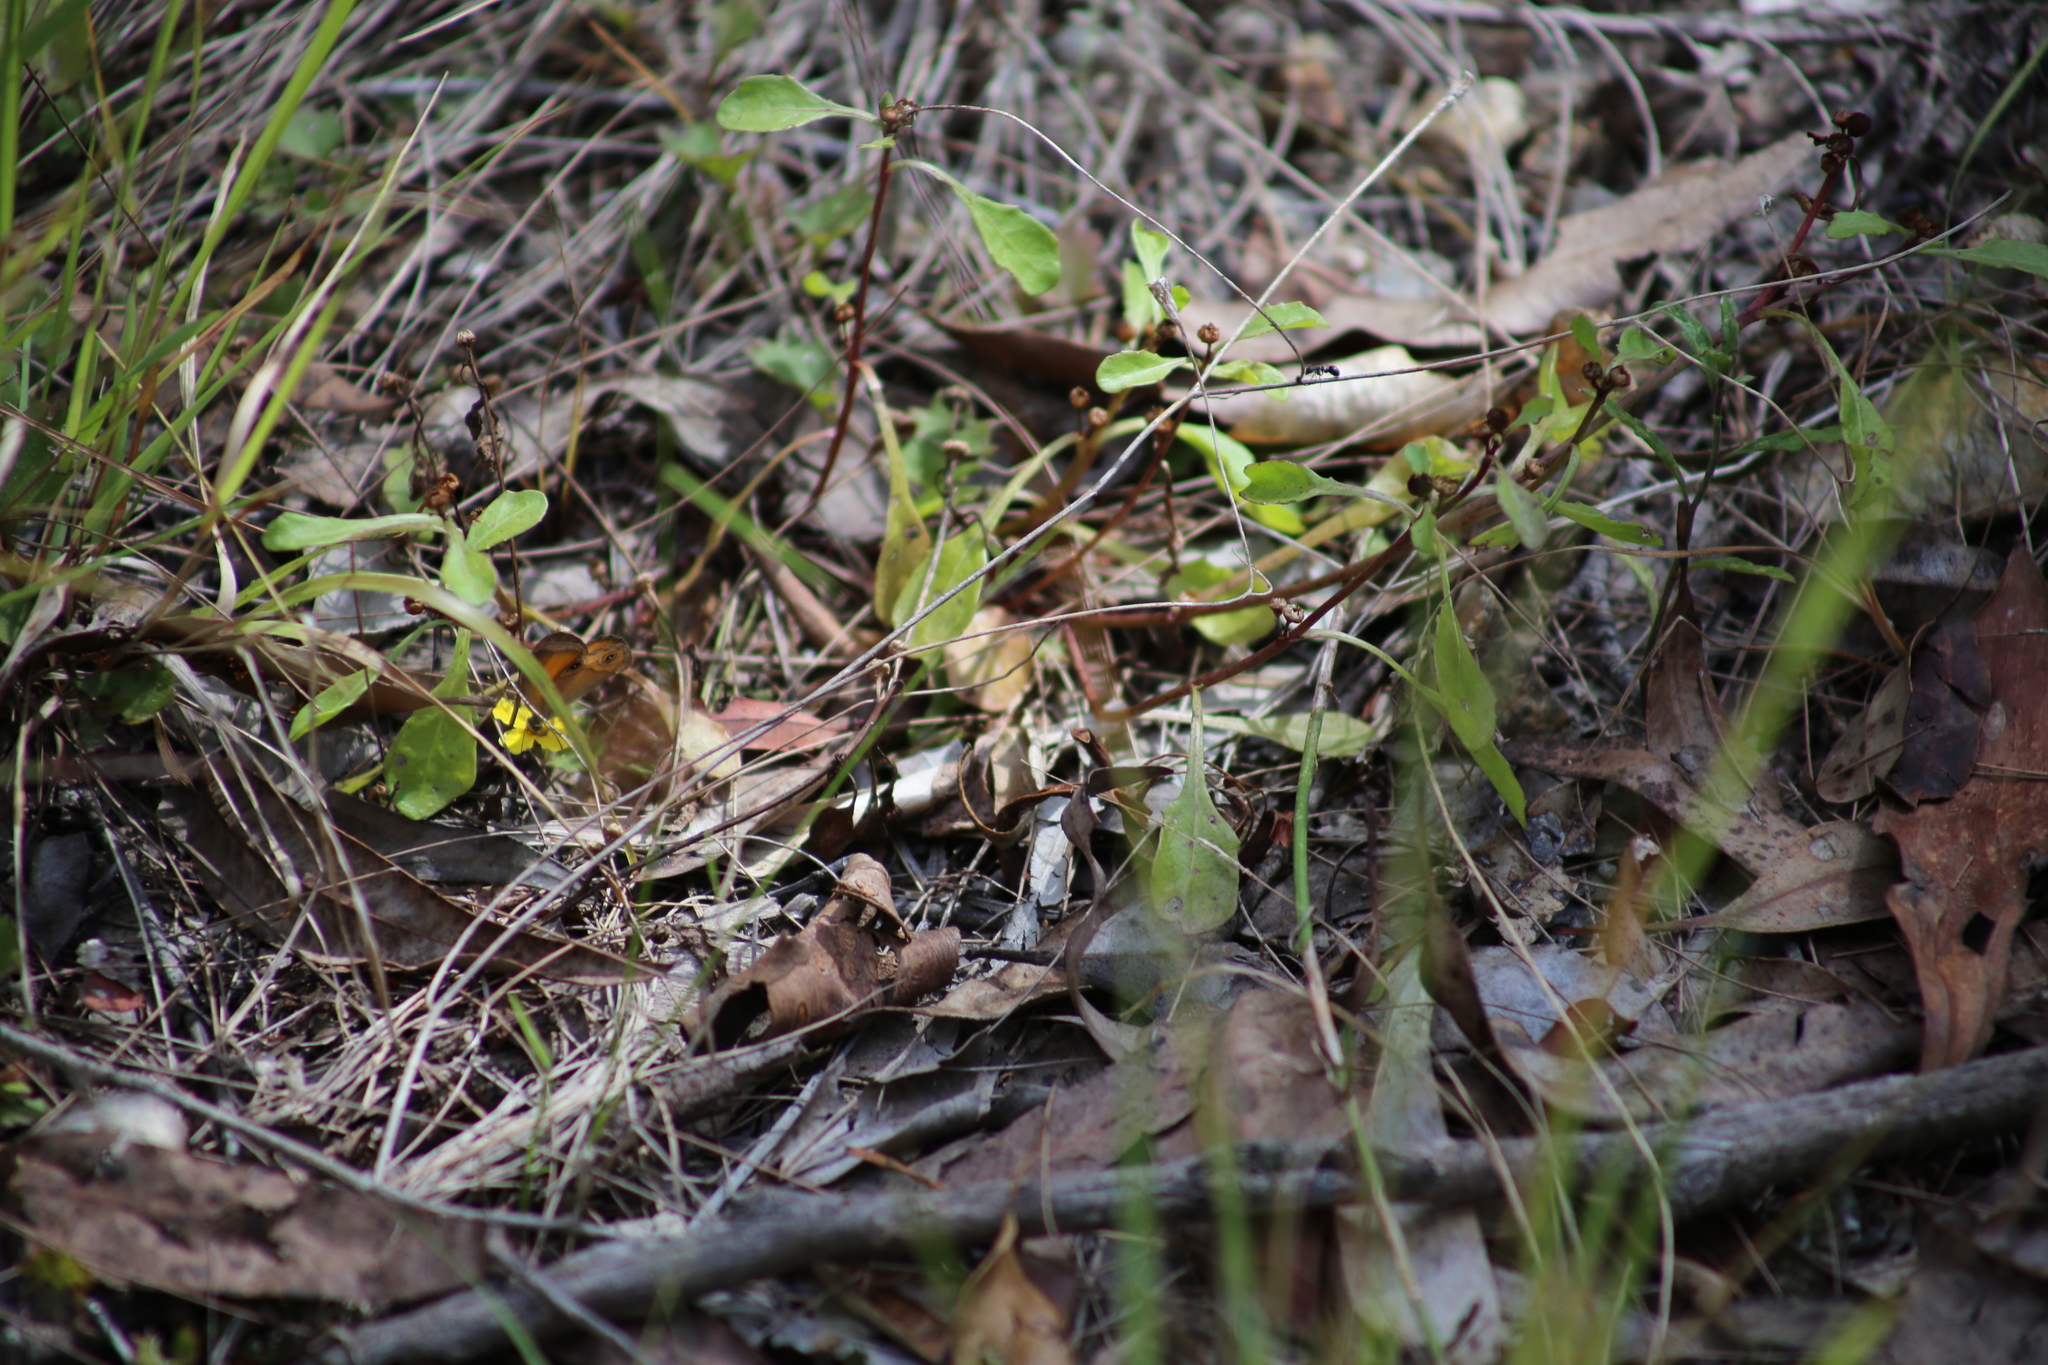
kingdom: Animalia
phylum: Arthropoda
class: Insecta
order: Lepidoptera
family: Nymphalidae
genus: Hypocysta
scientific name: Hypocysta adiante
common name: Orange ringlet
